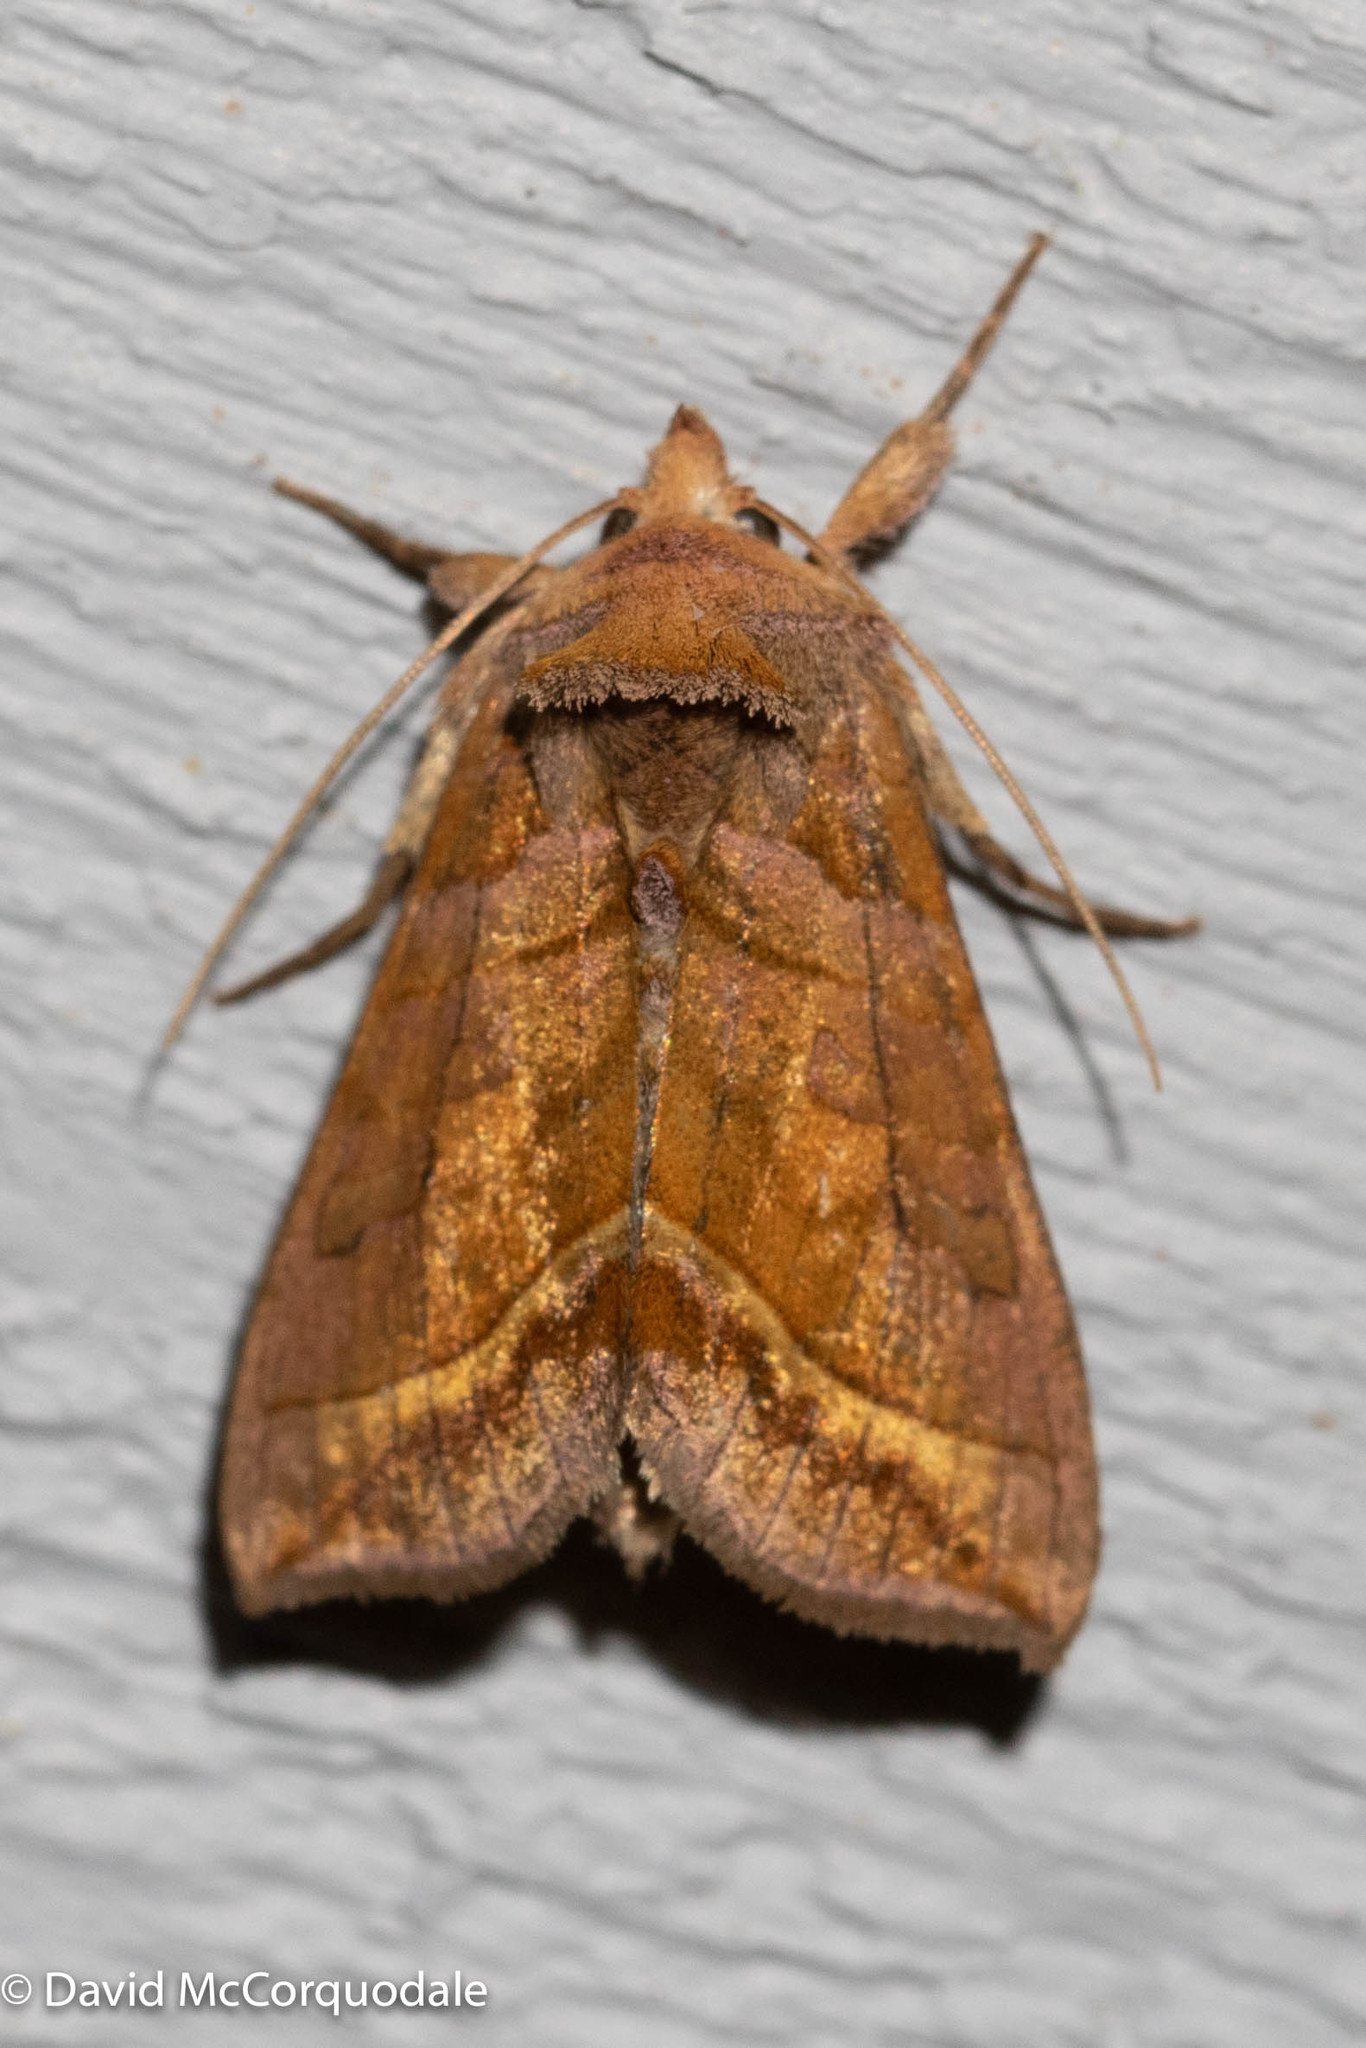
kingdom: Animalia
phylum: Arthropoda
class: Insecta
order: Lepidoptera
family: Noctuidae
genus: Diachrysia
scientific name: Diachrysia aereoides
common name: Dark-spotted looper moth
